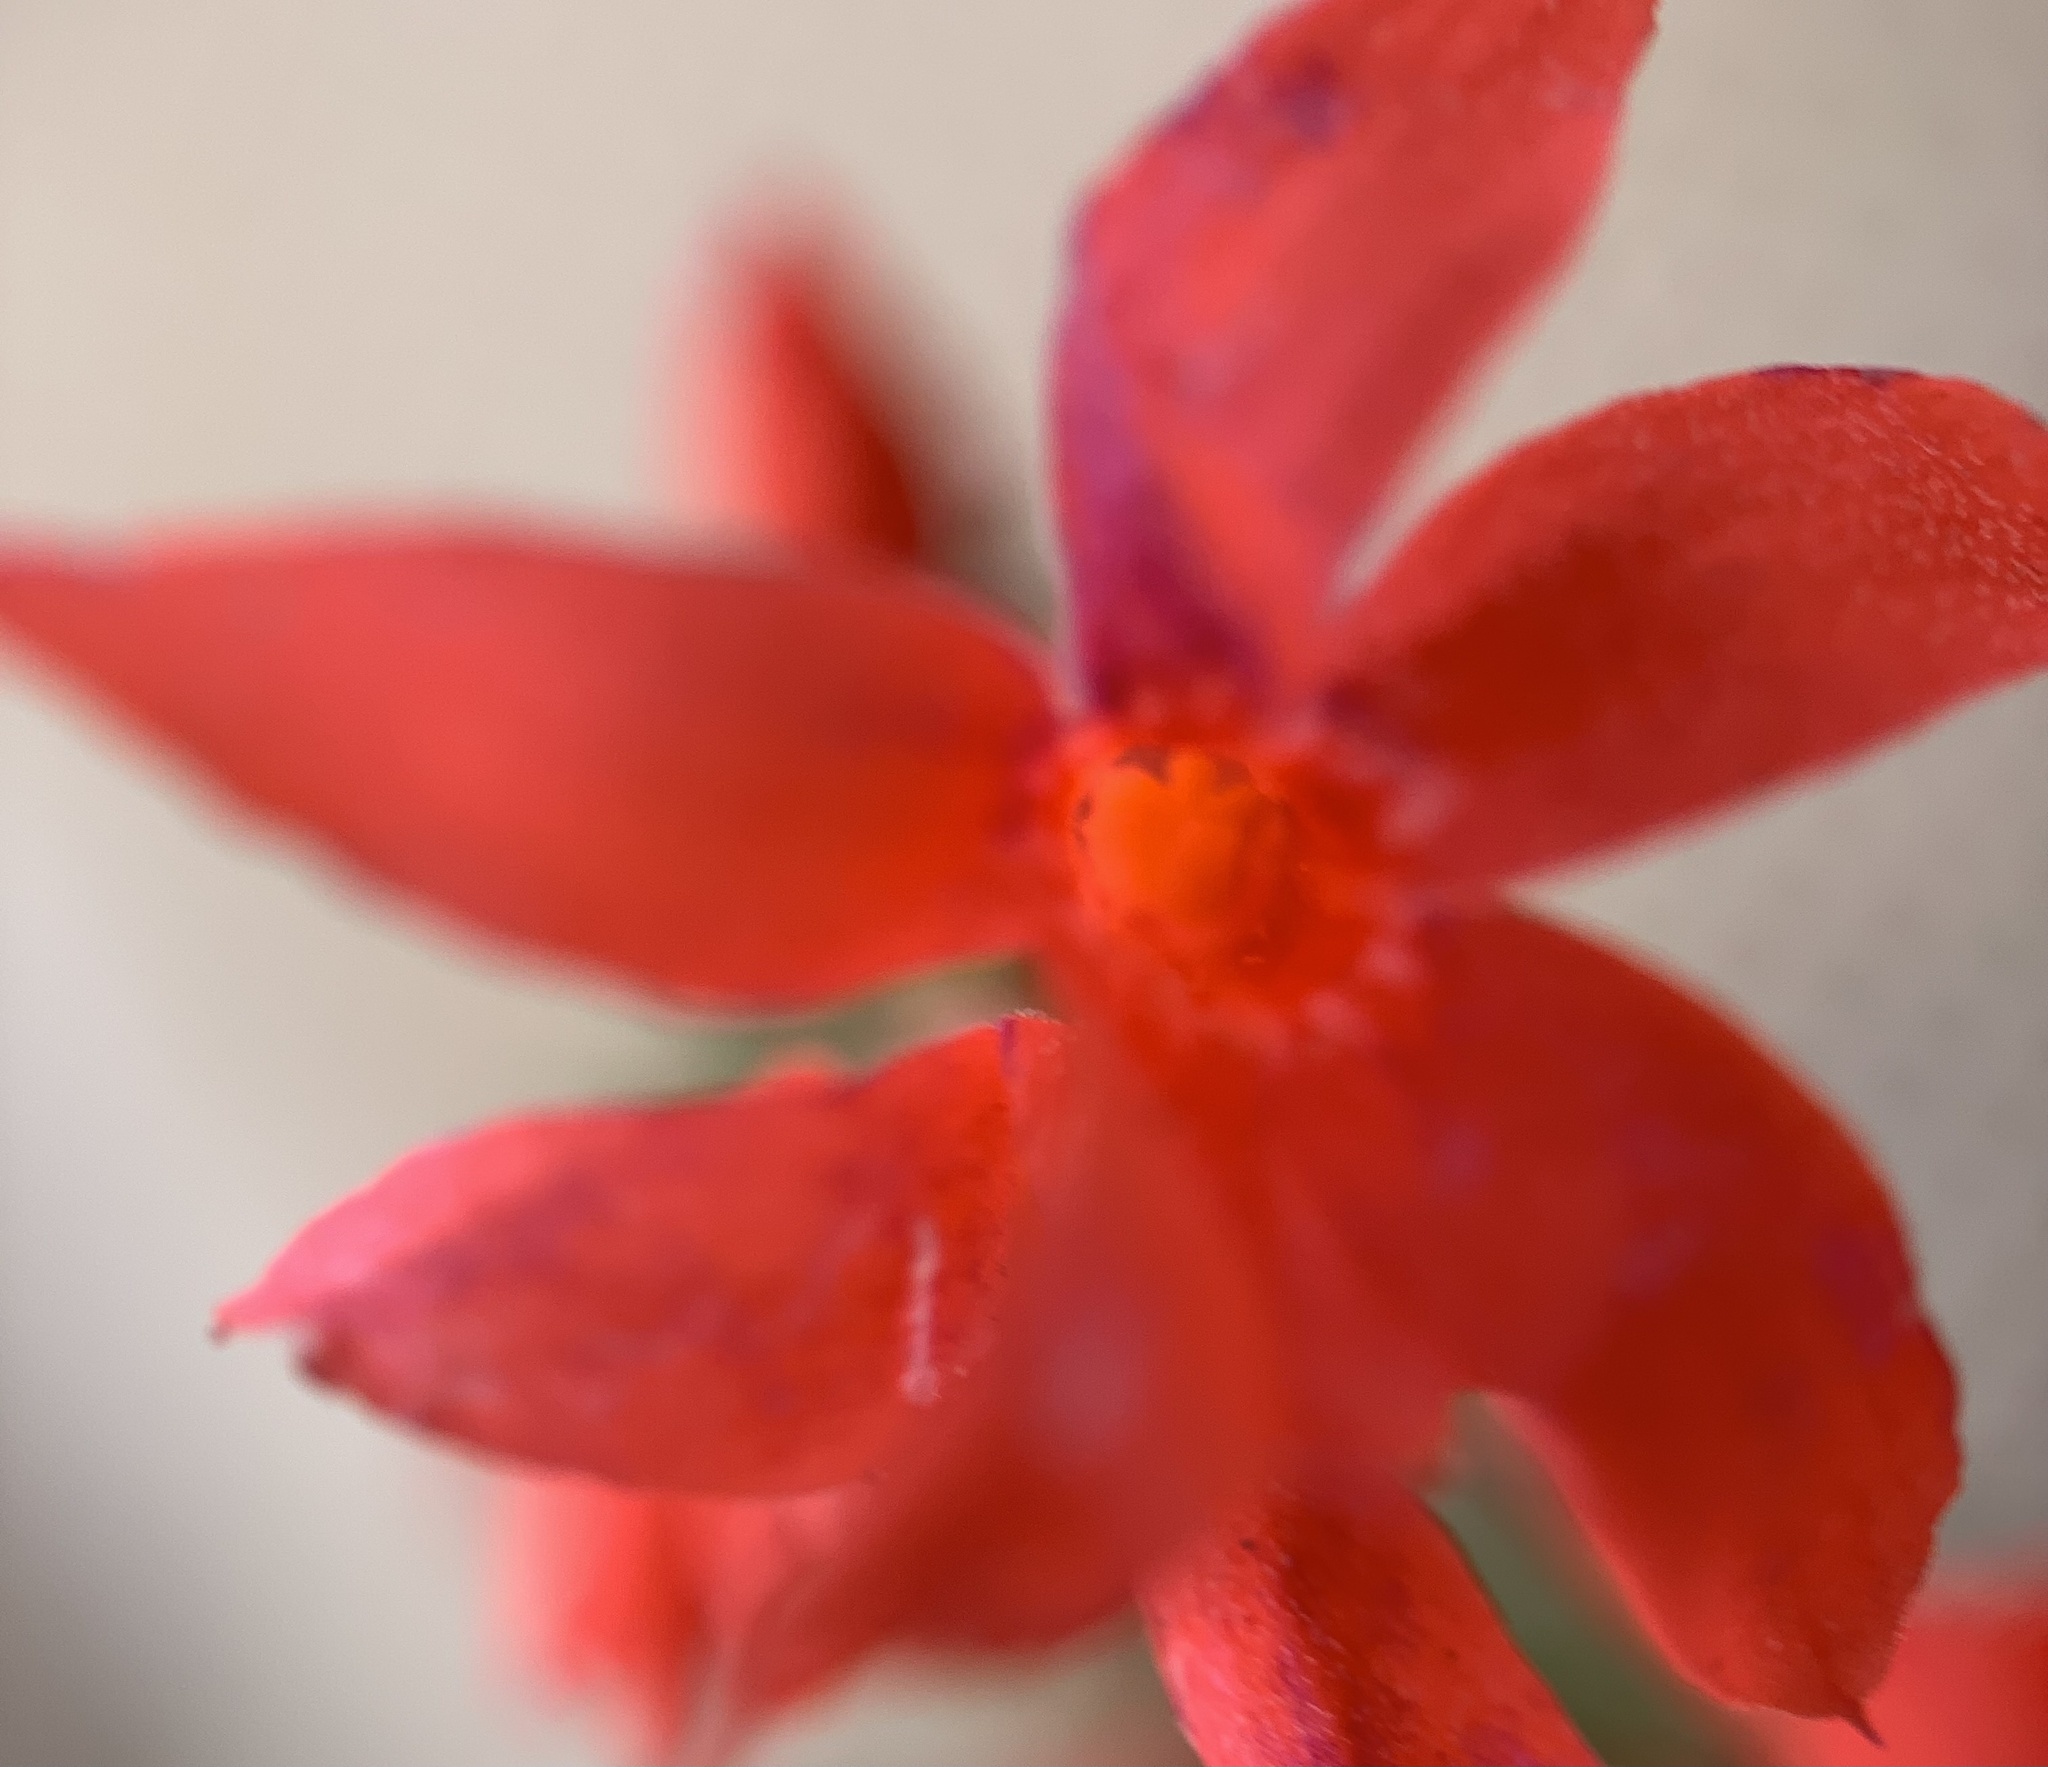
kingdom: Plantae
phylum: Tracheophyta
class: Magnoliopsida
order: Ericales
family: Polemoniaceae
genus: Ipomopsis
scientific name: Ipomopsis arizonica
